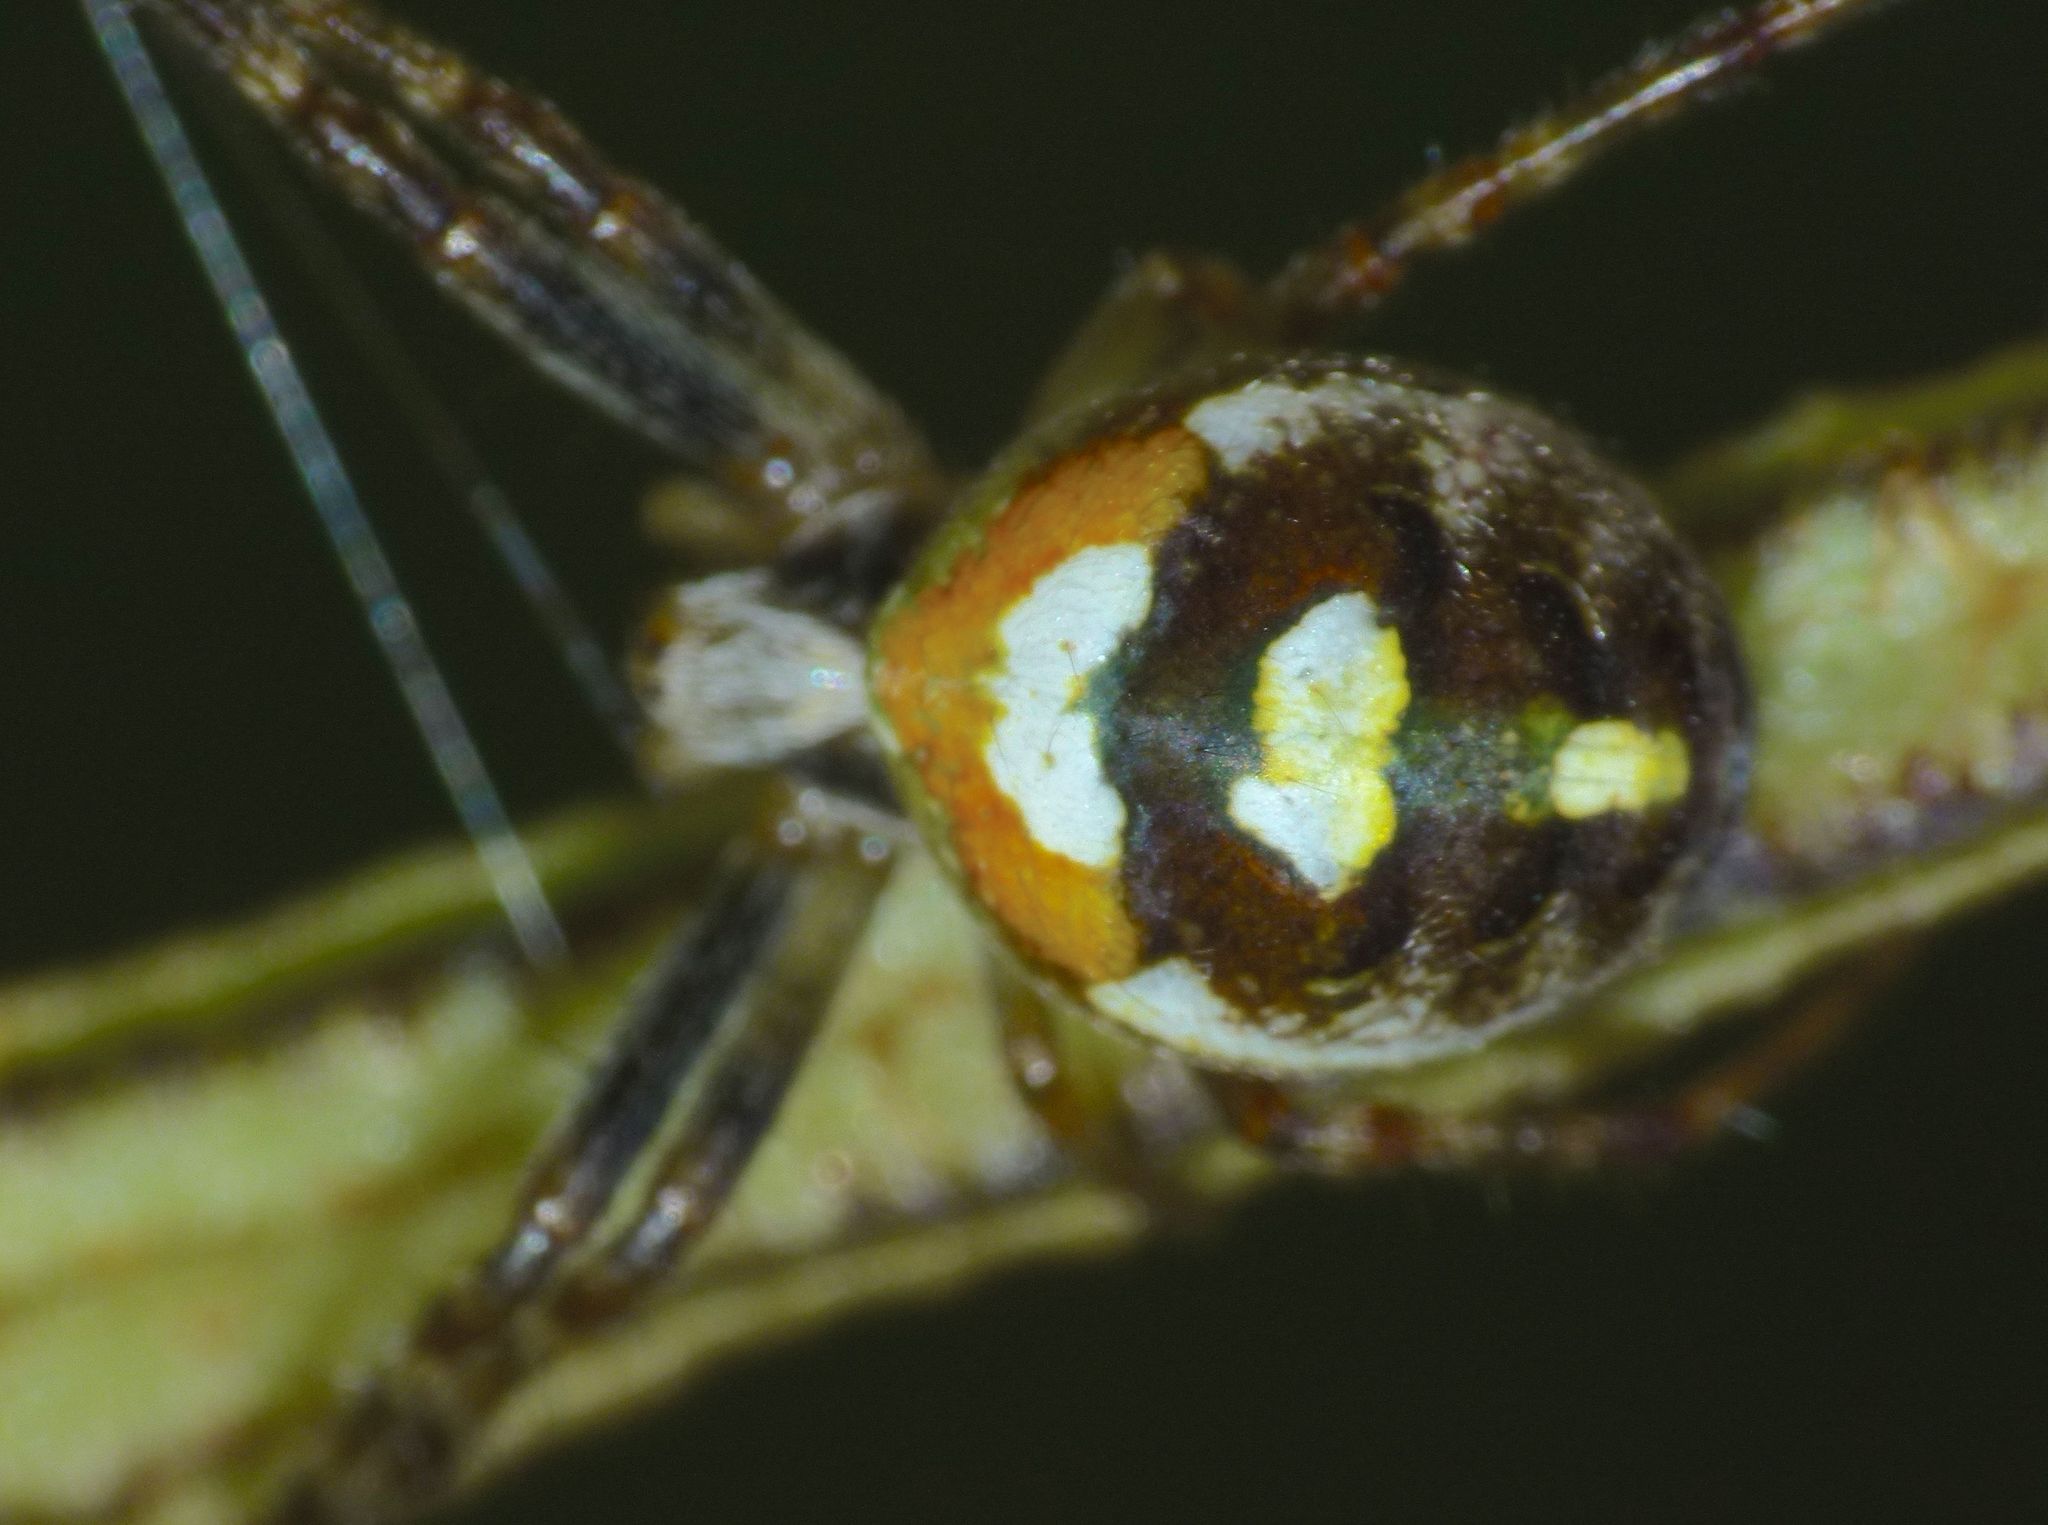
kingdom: Animalia
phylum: Arthropoda
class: Arachnida
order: Araneae
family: Araneidae
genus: Novaranea
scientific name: Novaranea queribunda
